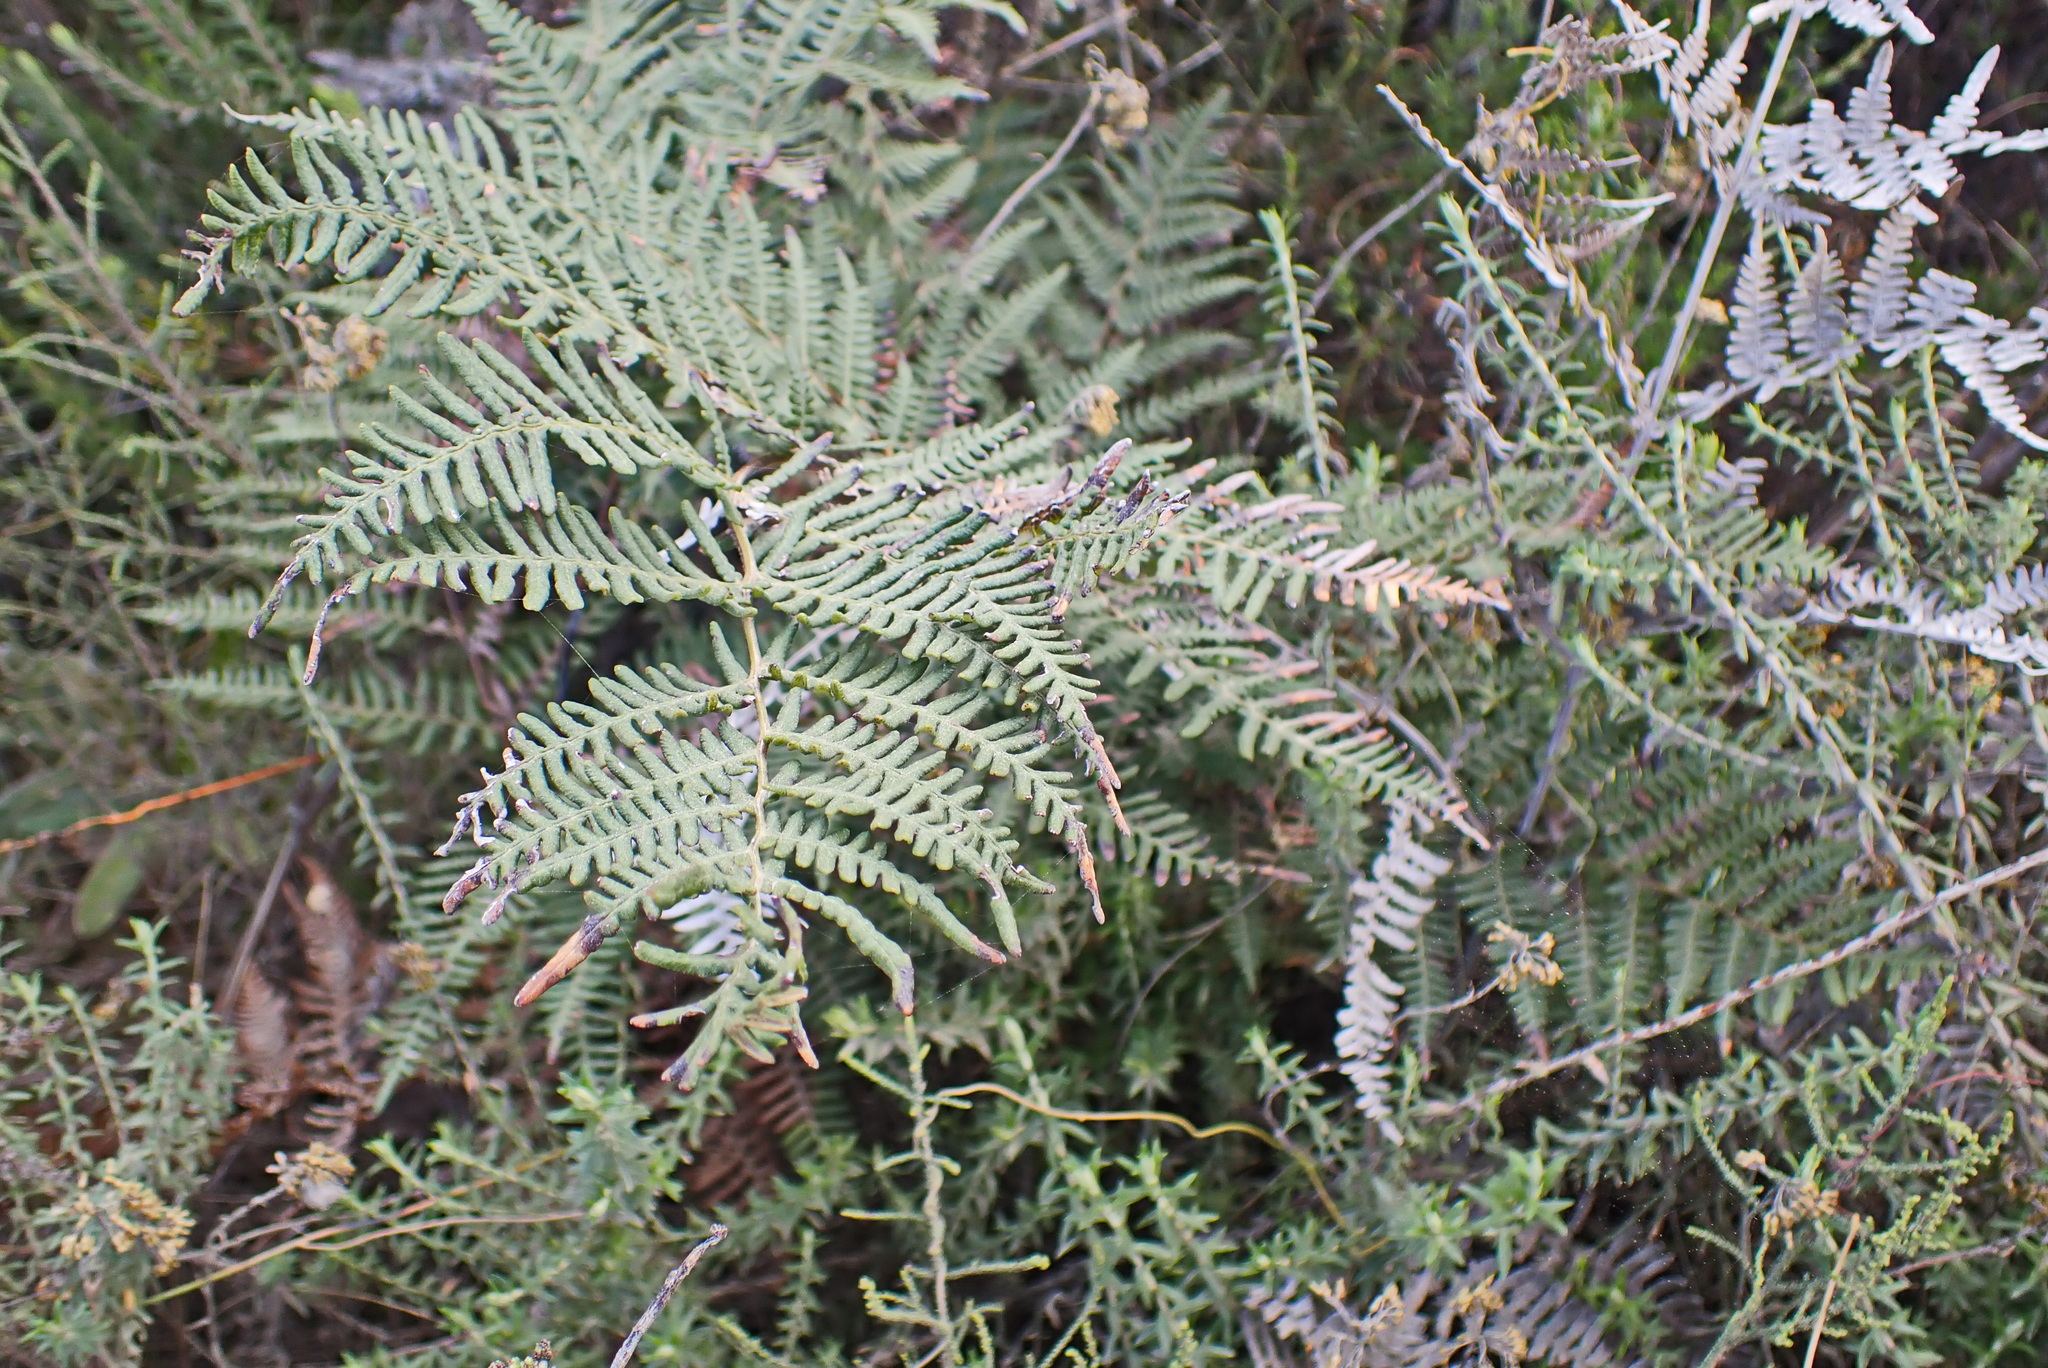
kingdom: Plantae
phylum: Tracheophyta
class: Polypodiopsida
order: Polypodiales
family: Dennstaedtiaceae
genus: Pteridium
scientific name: Pteridium aquilinum
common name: Bracken
